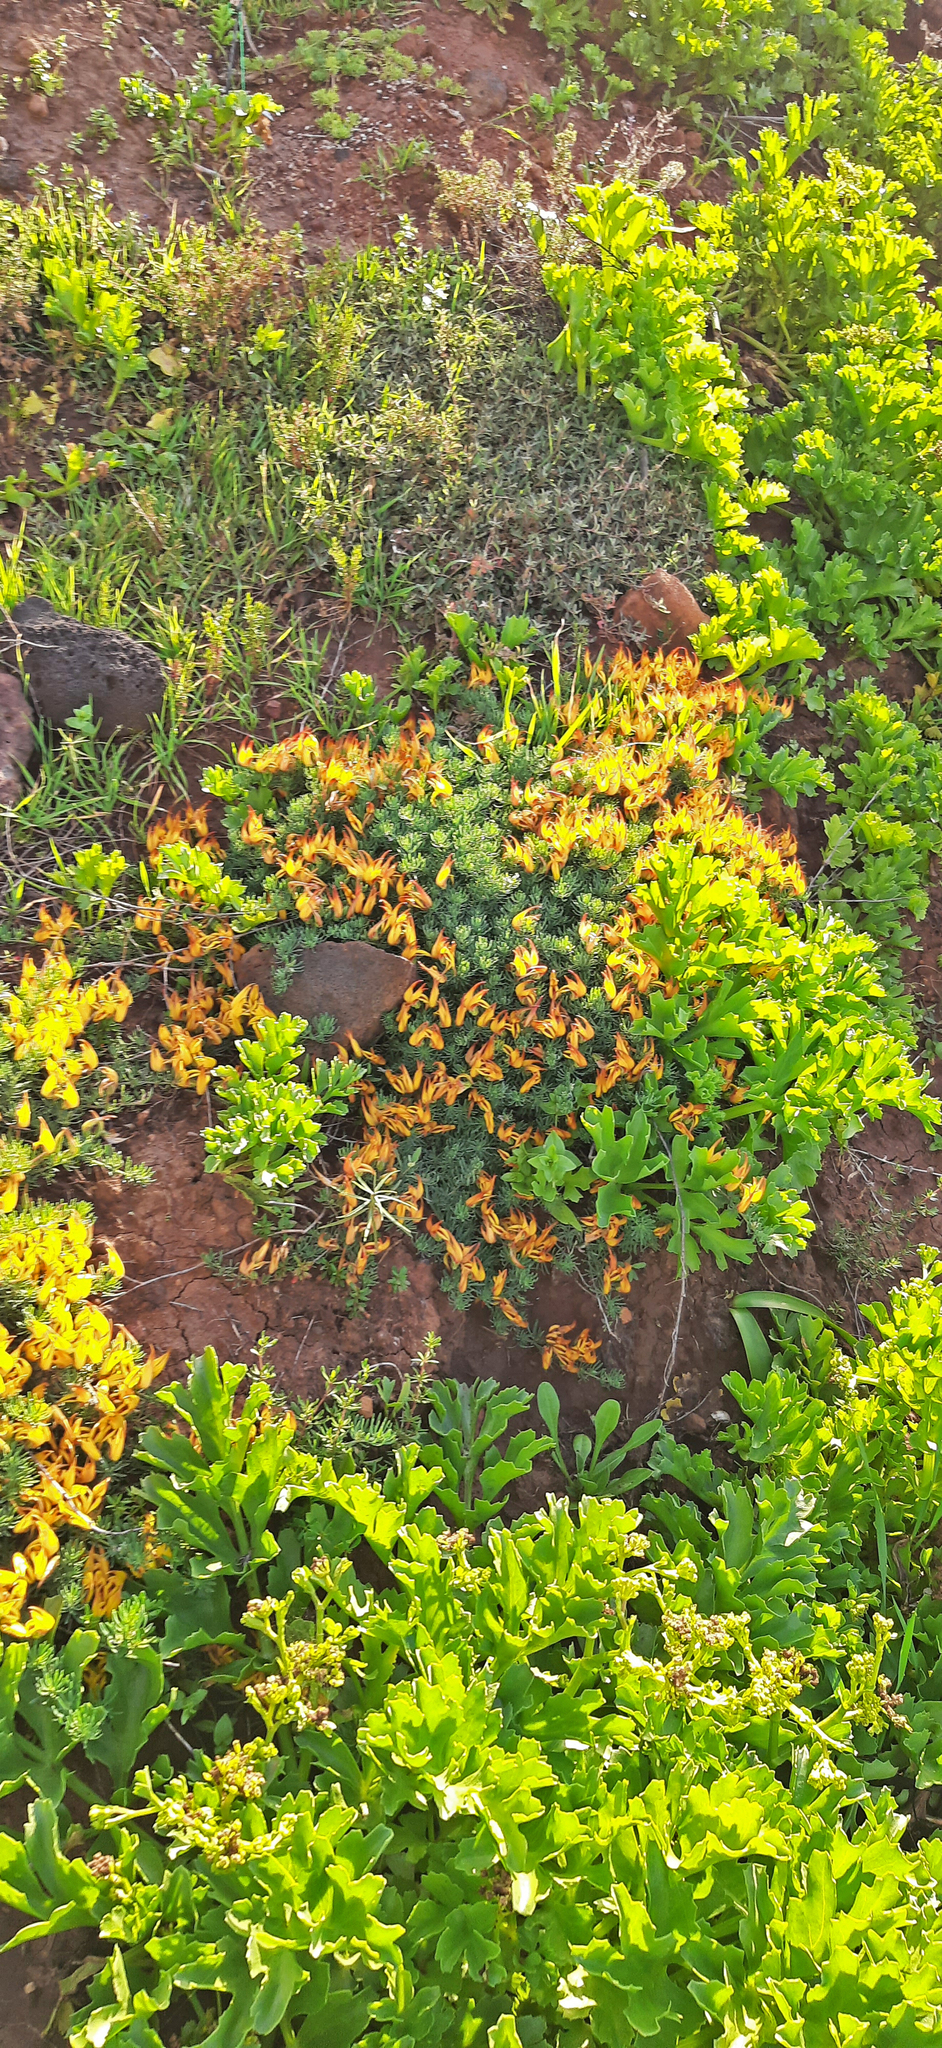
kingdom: Plantae
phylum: Tracheophyta
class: Magnoliopsida
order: Fabales
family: Fabaceae
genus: Lotus
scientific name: Lotus maculatus
